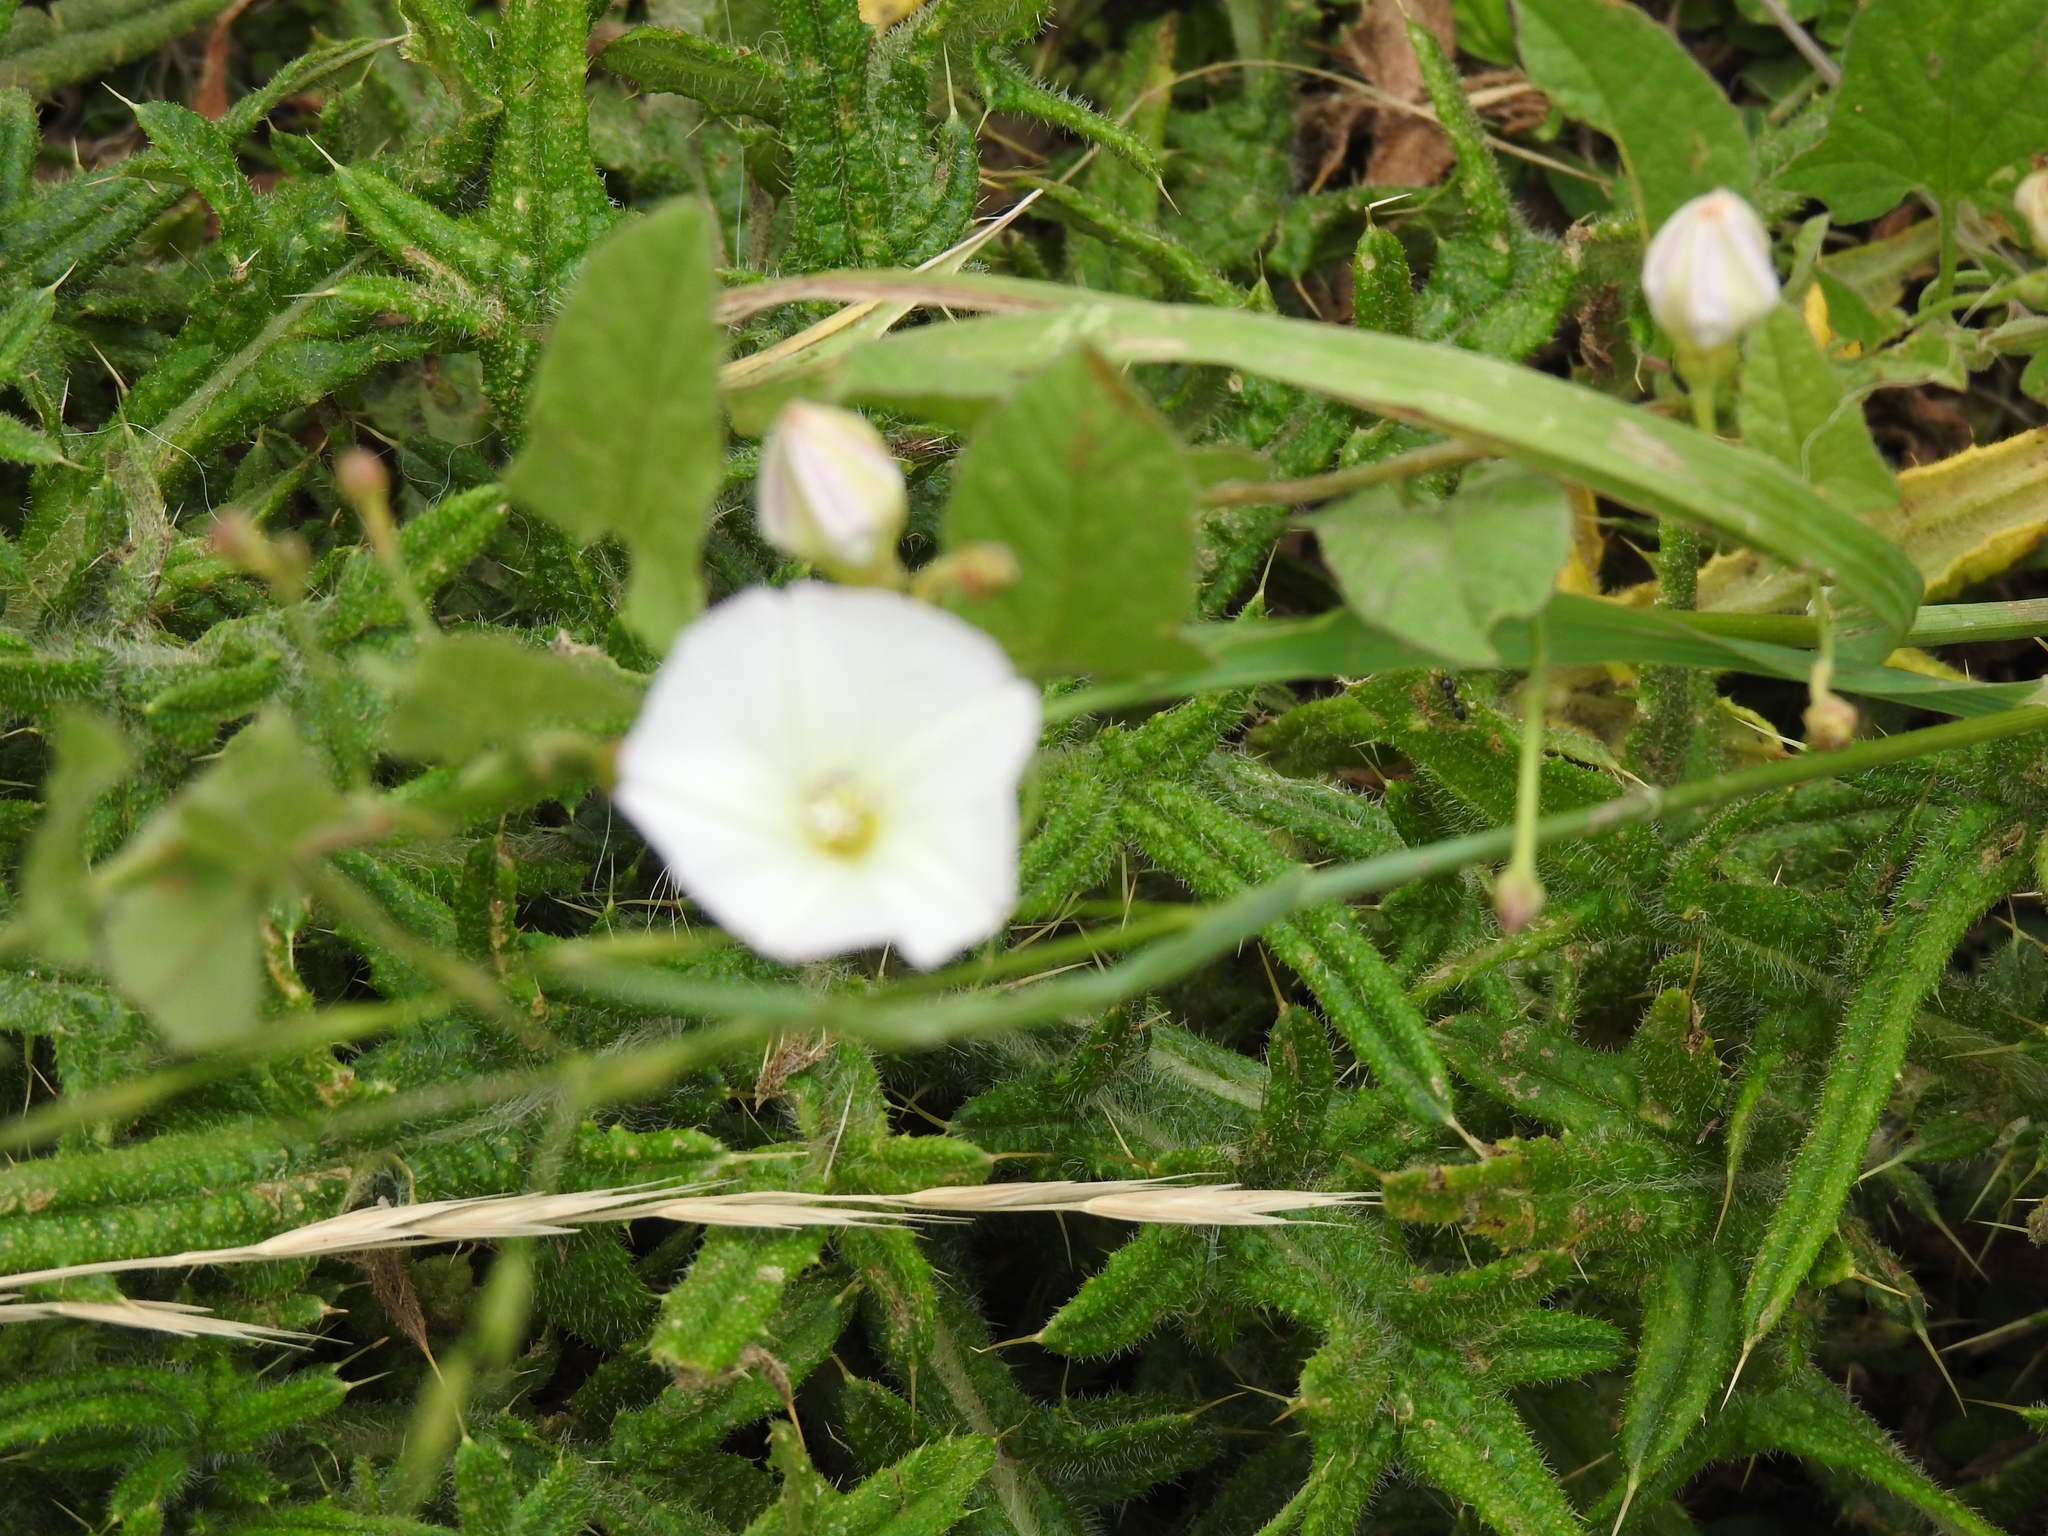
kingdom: Plantae
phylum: Tracheophyta
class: Magnoliopsida
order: Solanales
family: Convolvulaceae
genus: Convolvulus
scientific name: Convolvulus arvensis
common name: Field bindweed
